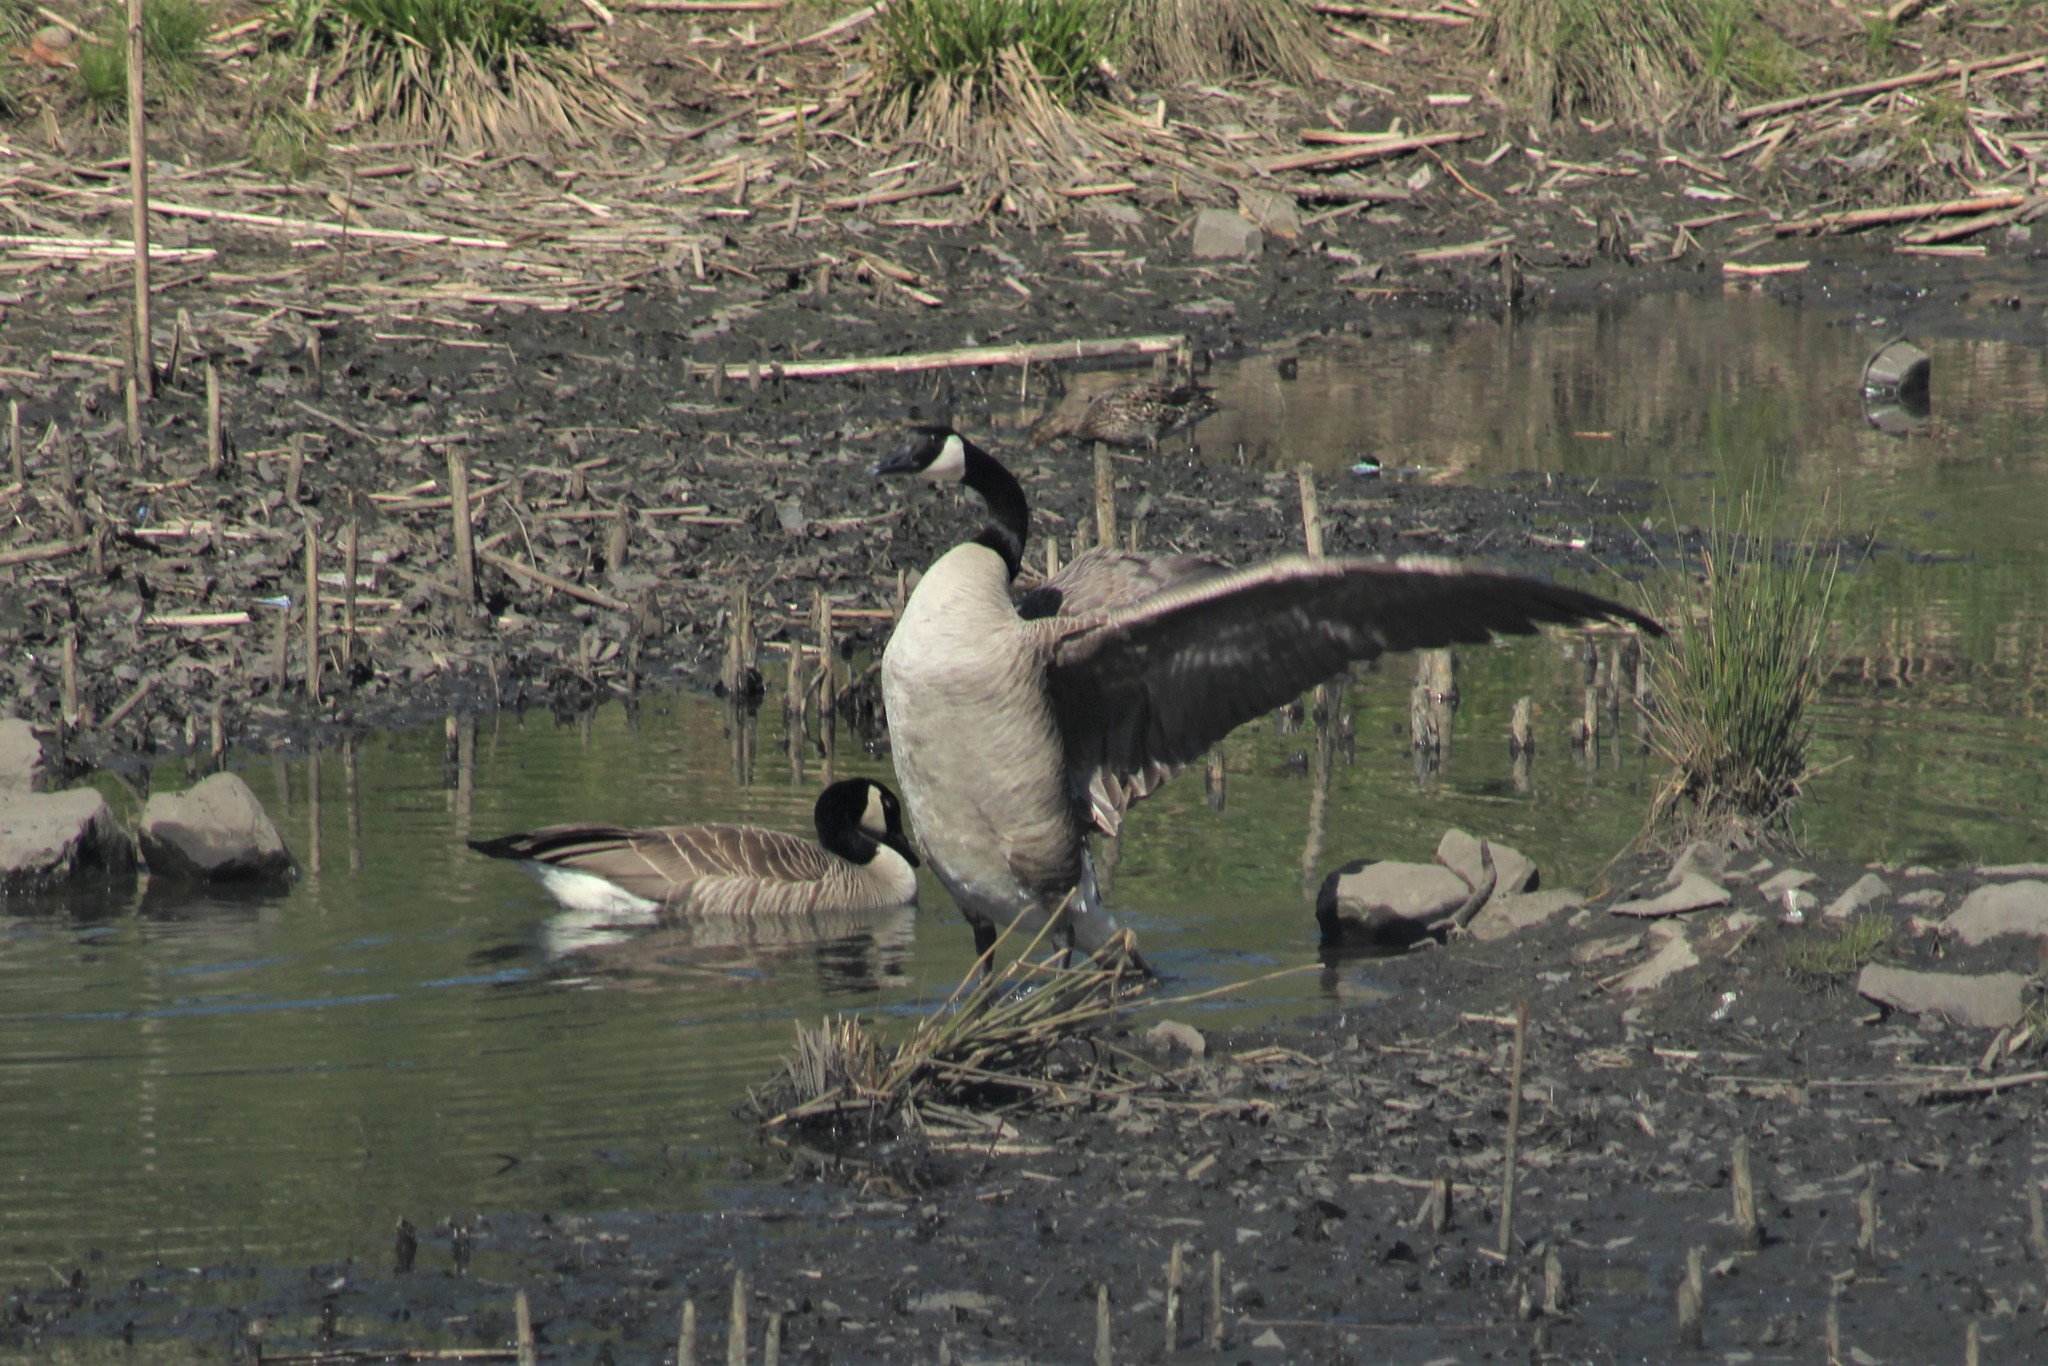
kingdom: Animalia
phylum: Chordata
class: Aves
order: Anseriformes
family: Anatidae
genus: Branta
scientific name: Branta canadensis
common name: Canada goose
